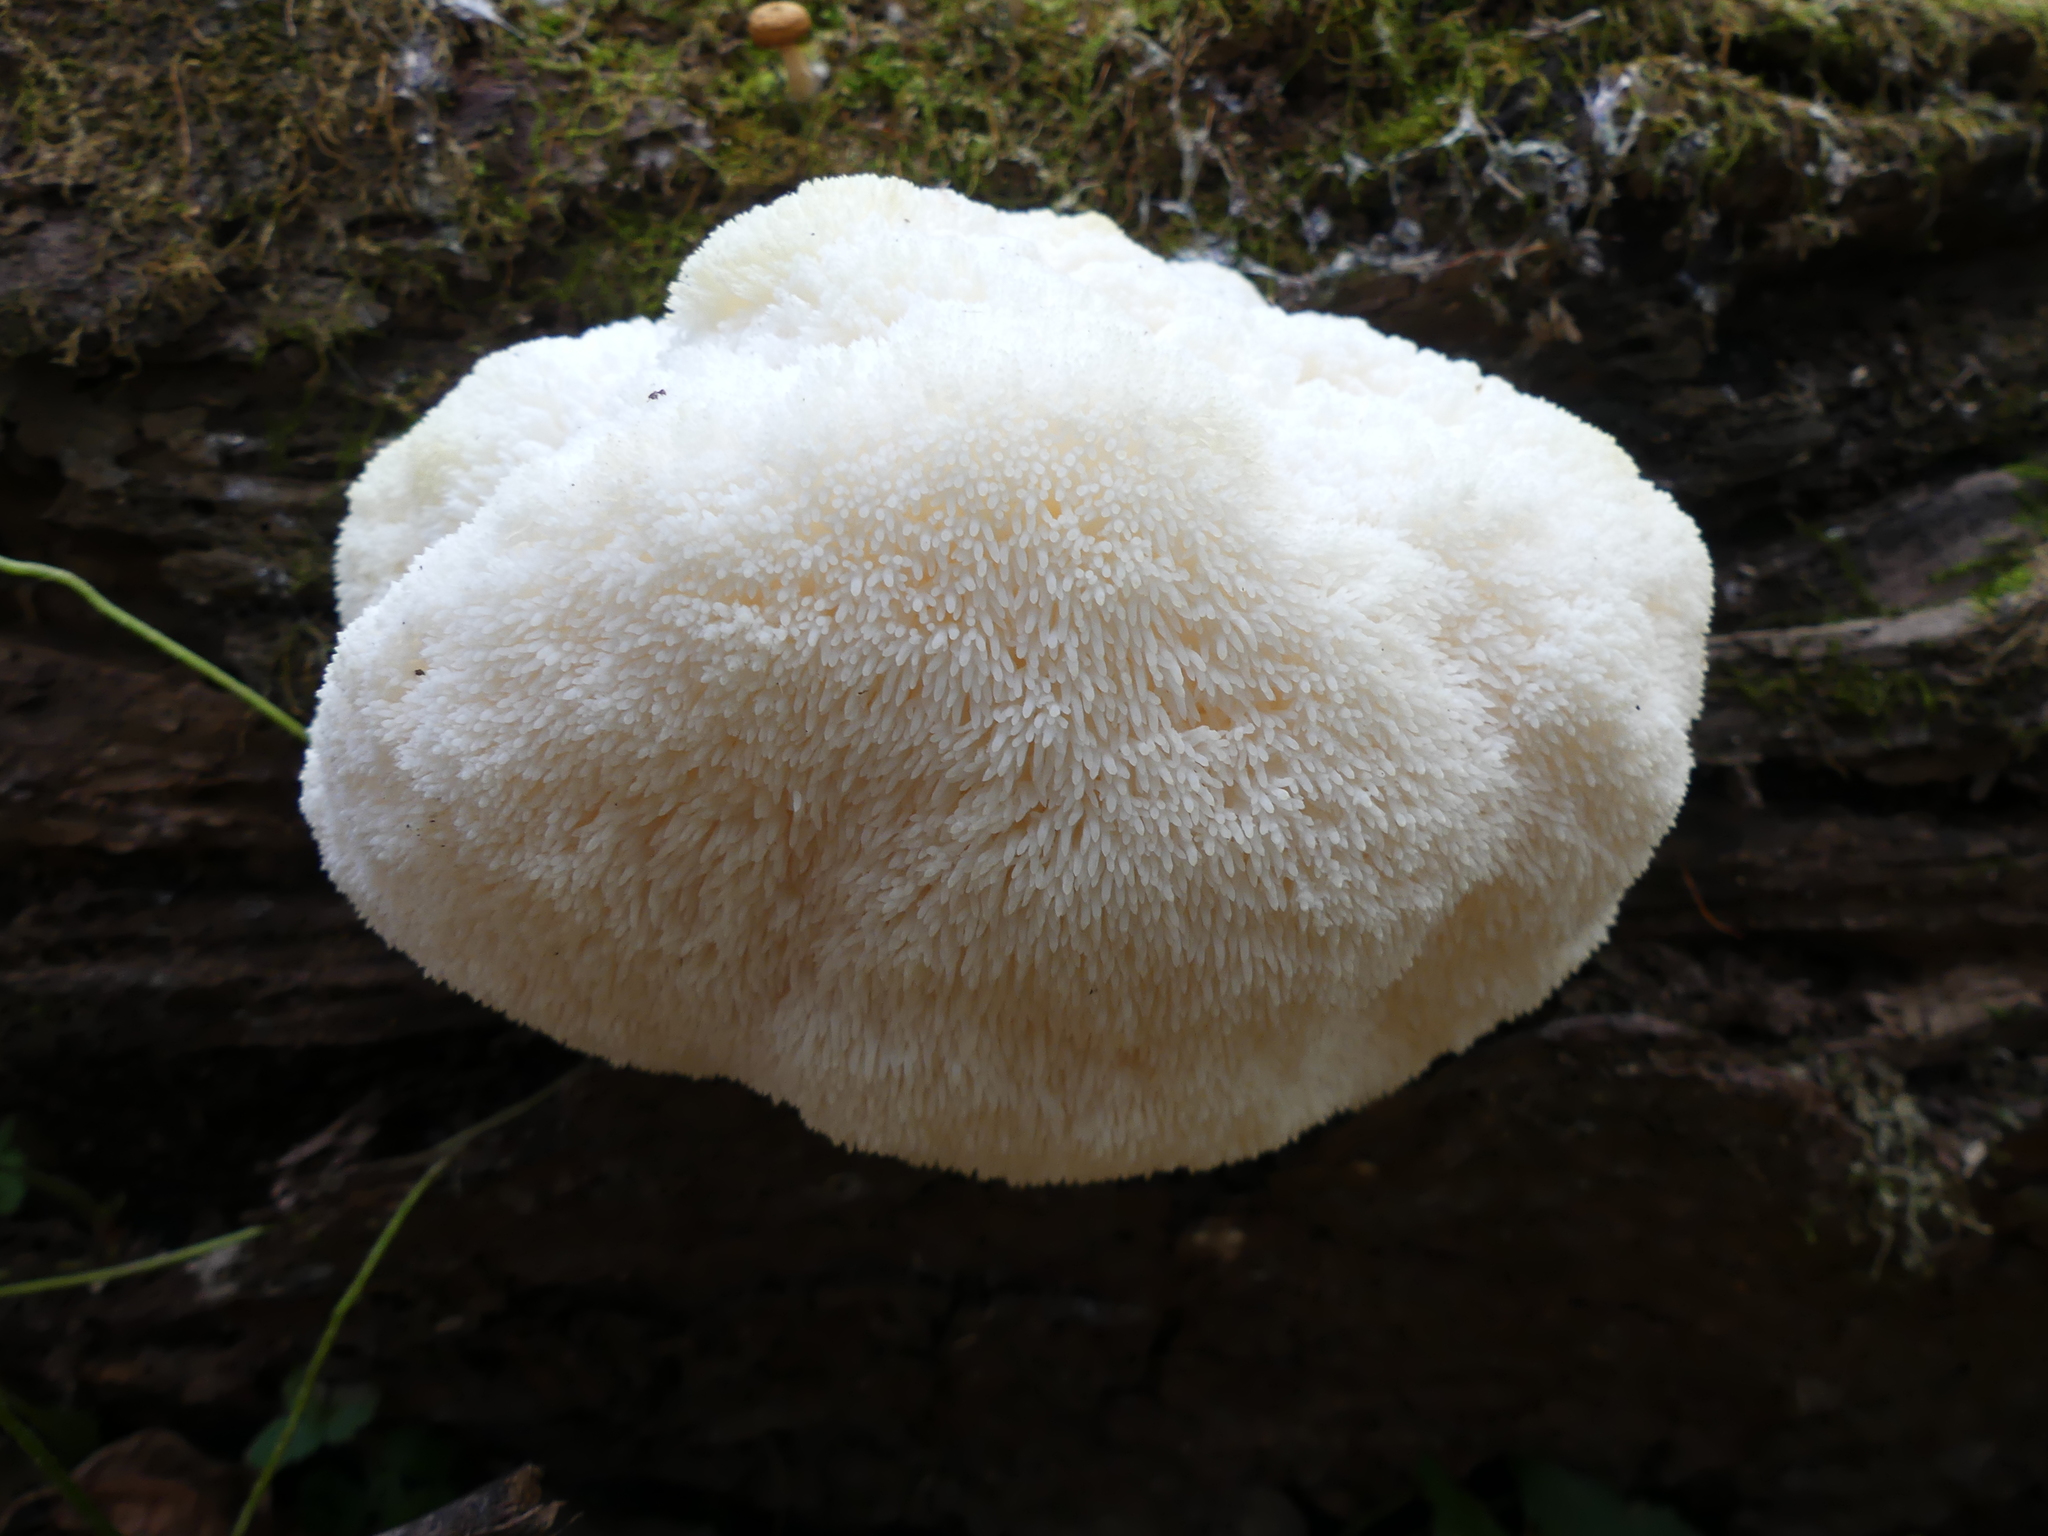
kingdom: Fungi
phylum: Basidiomycota
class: Agaricomycetes
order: Russulales
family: Hericiaceae
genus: Hericium
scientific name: Hericium erinaceus
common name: Bearded tooth
